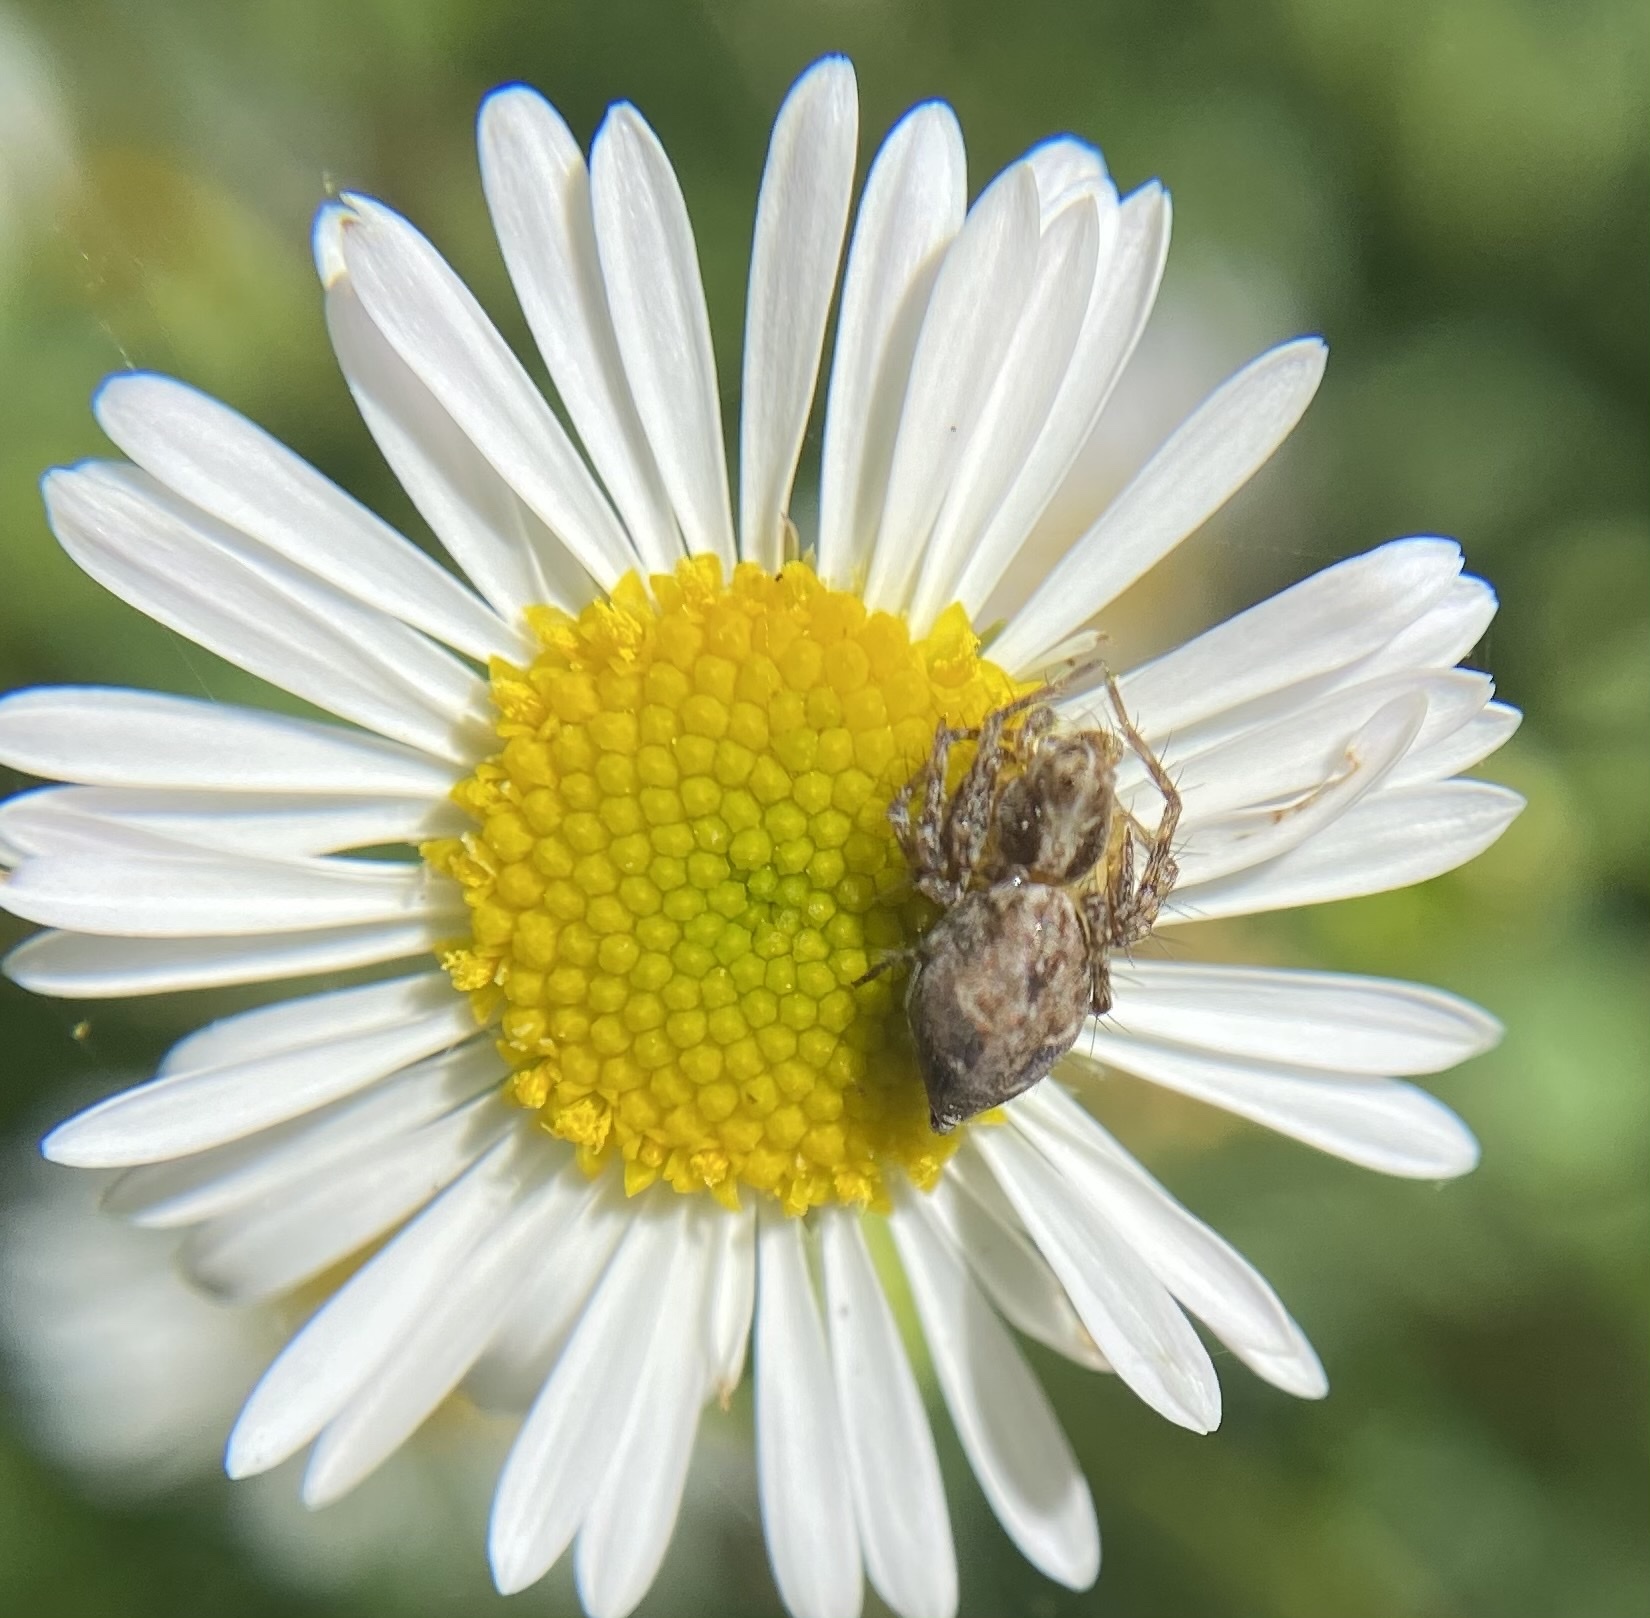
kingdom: Animalia
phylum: Arthropoda
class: Arachnida
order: Araneae
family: Oxyopidae
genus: Oxyopes
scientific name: Oxyopes scalaris
